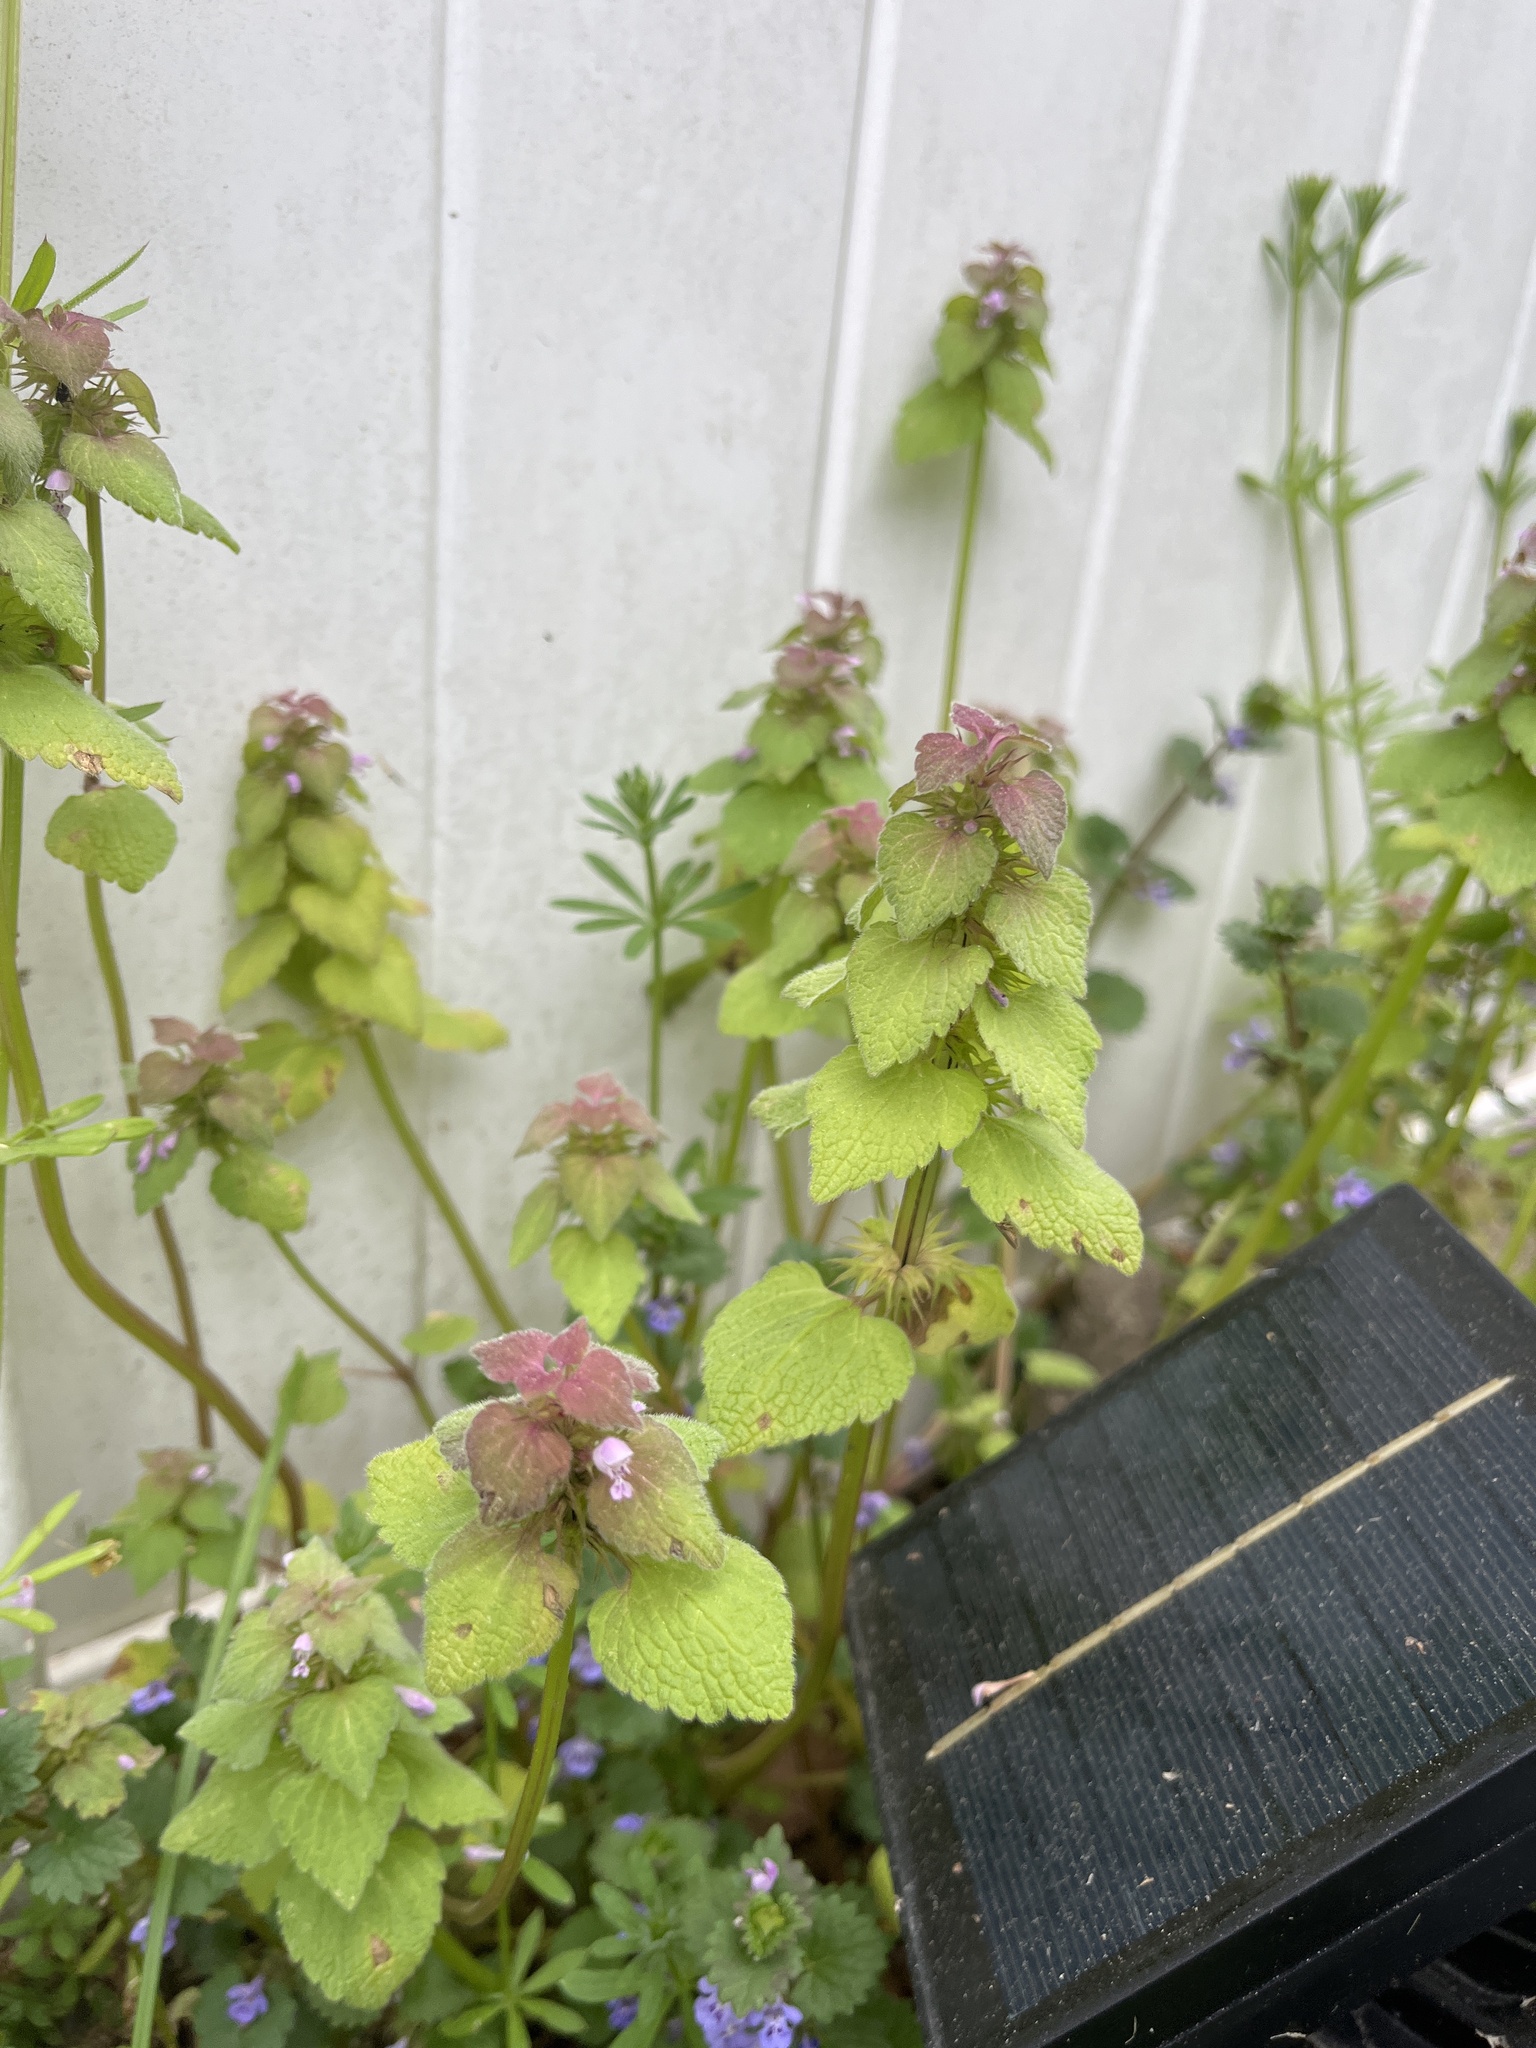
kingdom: Plantae
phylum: Tracheophyta
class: Magnoliopsida
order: Lamiales
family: Lamiaceae
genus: Lamium
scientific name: Lamium purpureum
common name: Red dead-nettle
